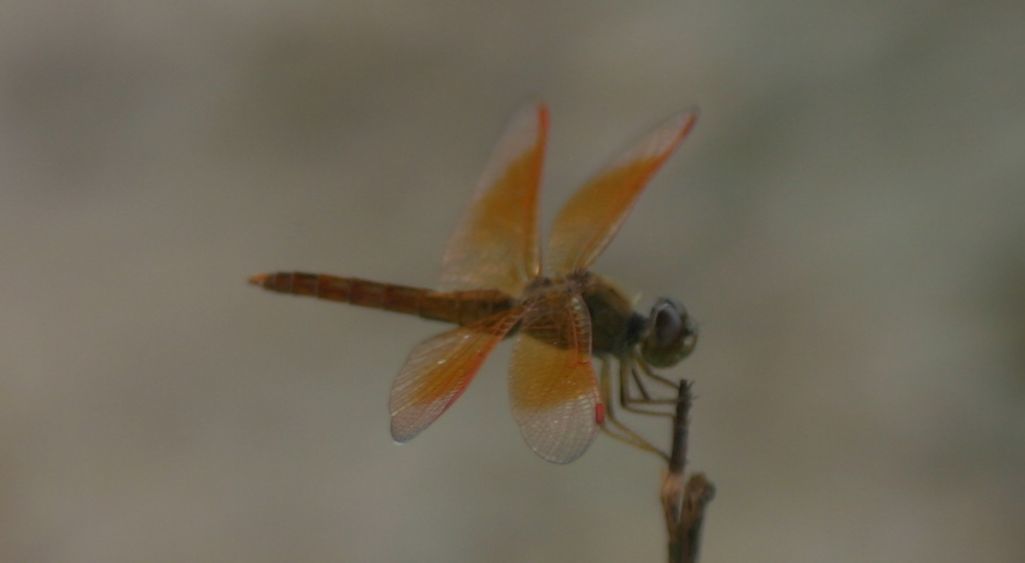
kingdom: Animalia
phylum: Arthropoda
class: Insecta
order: Odonata
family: Libellulidae
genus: Brachythemis
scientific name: Brachythemis contaminata
